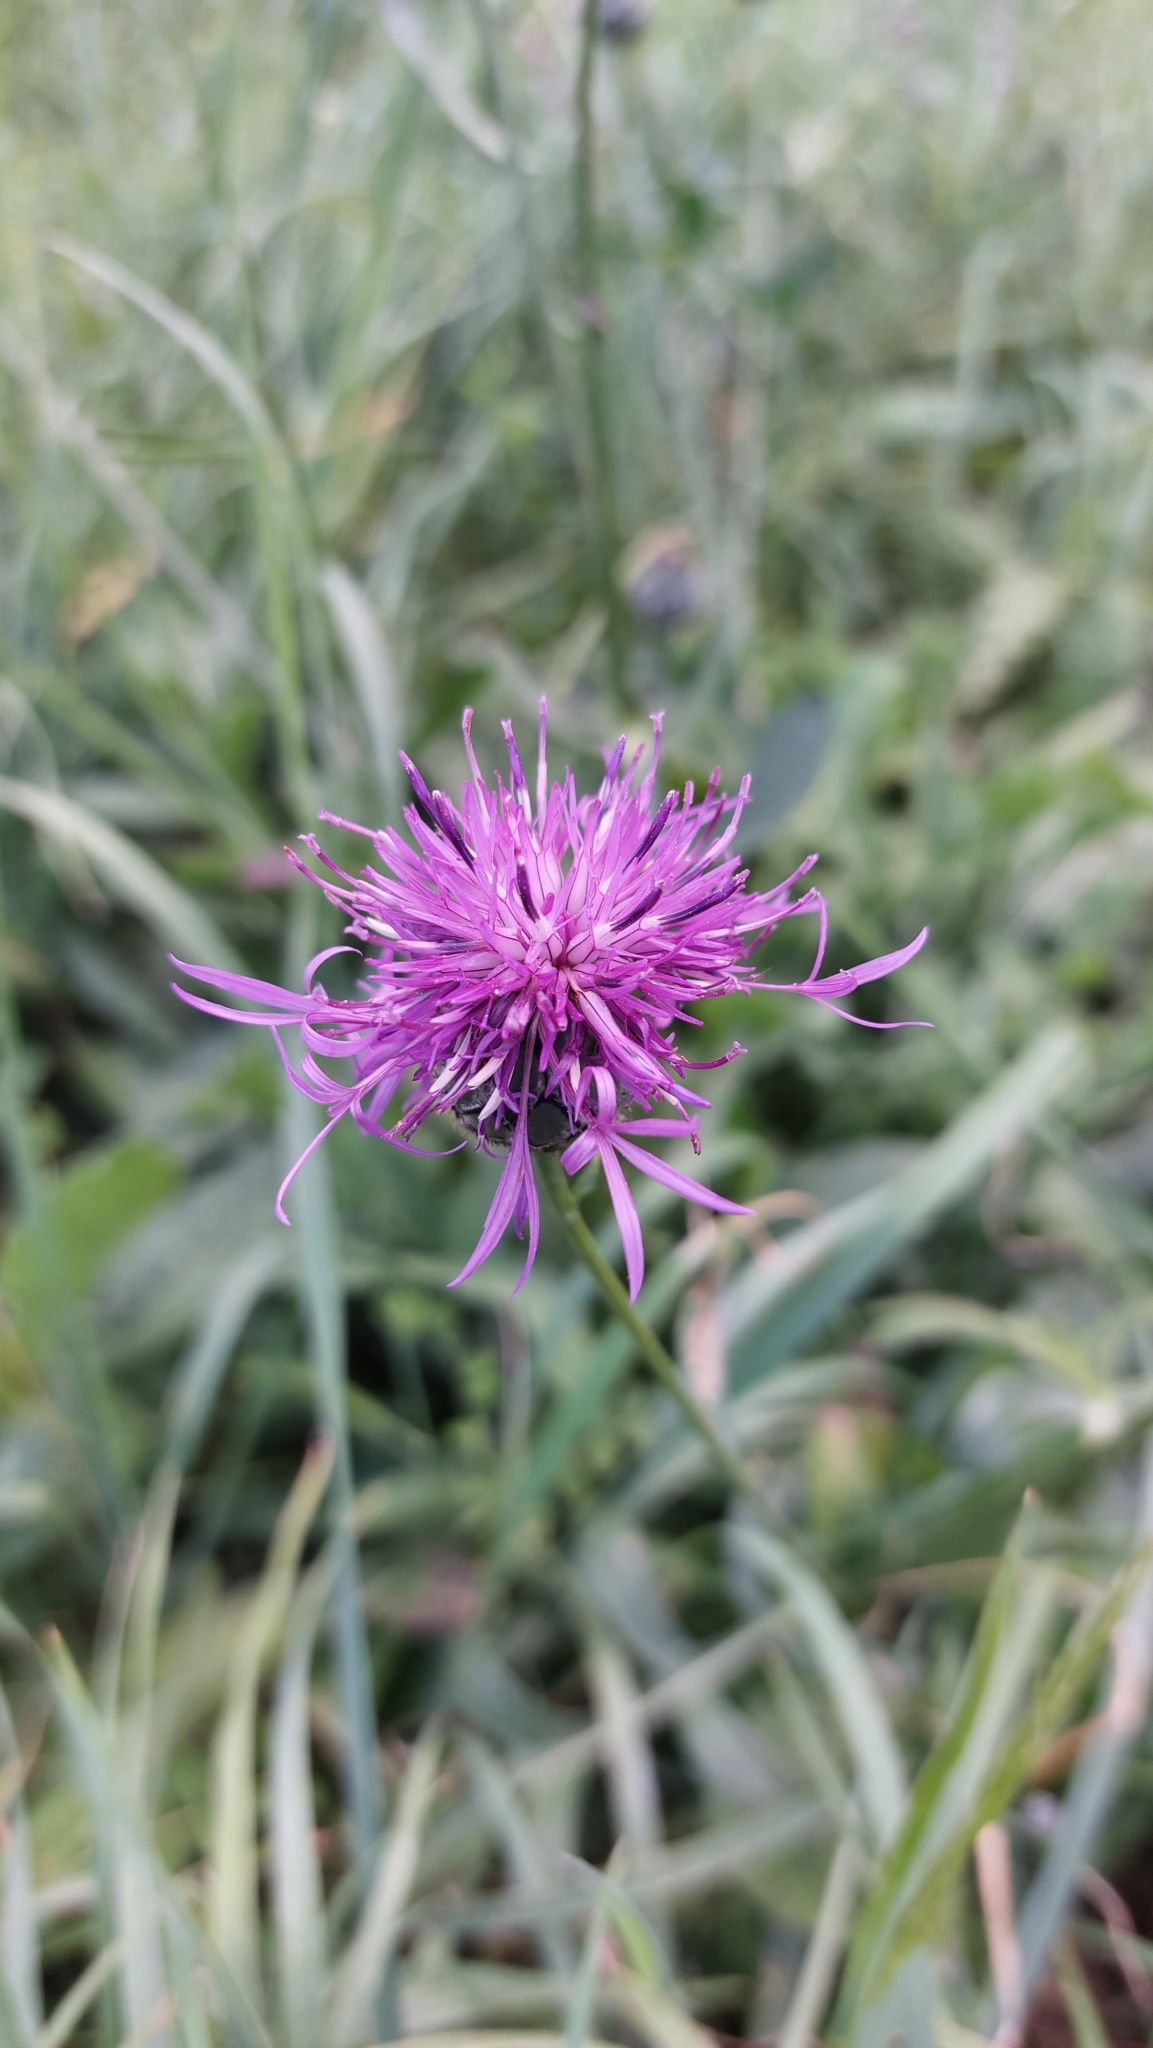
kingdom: Plantae
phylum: Tracheophyta
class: Magnoliopsida
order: Asterales
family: Asteraceae
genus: Centaurea
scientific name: Centaurea scabiosa
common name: Greater knapweed
